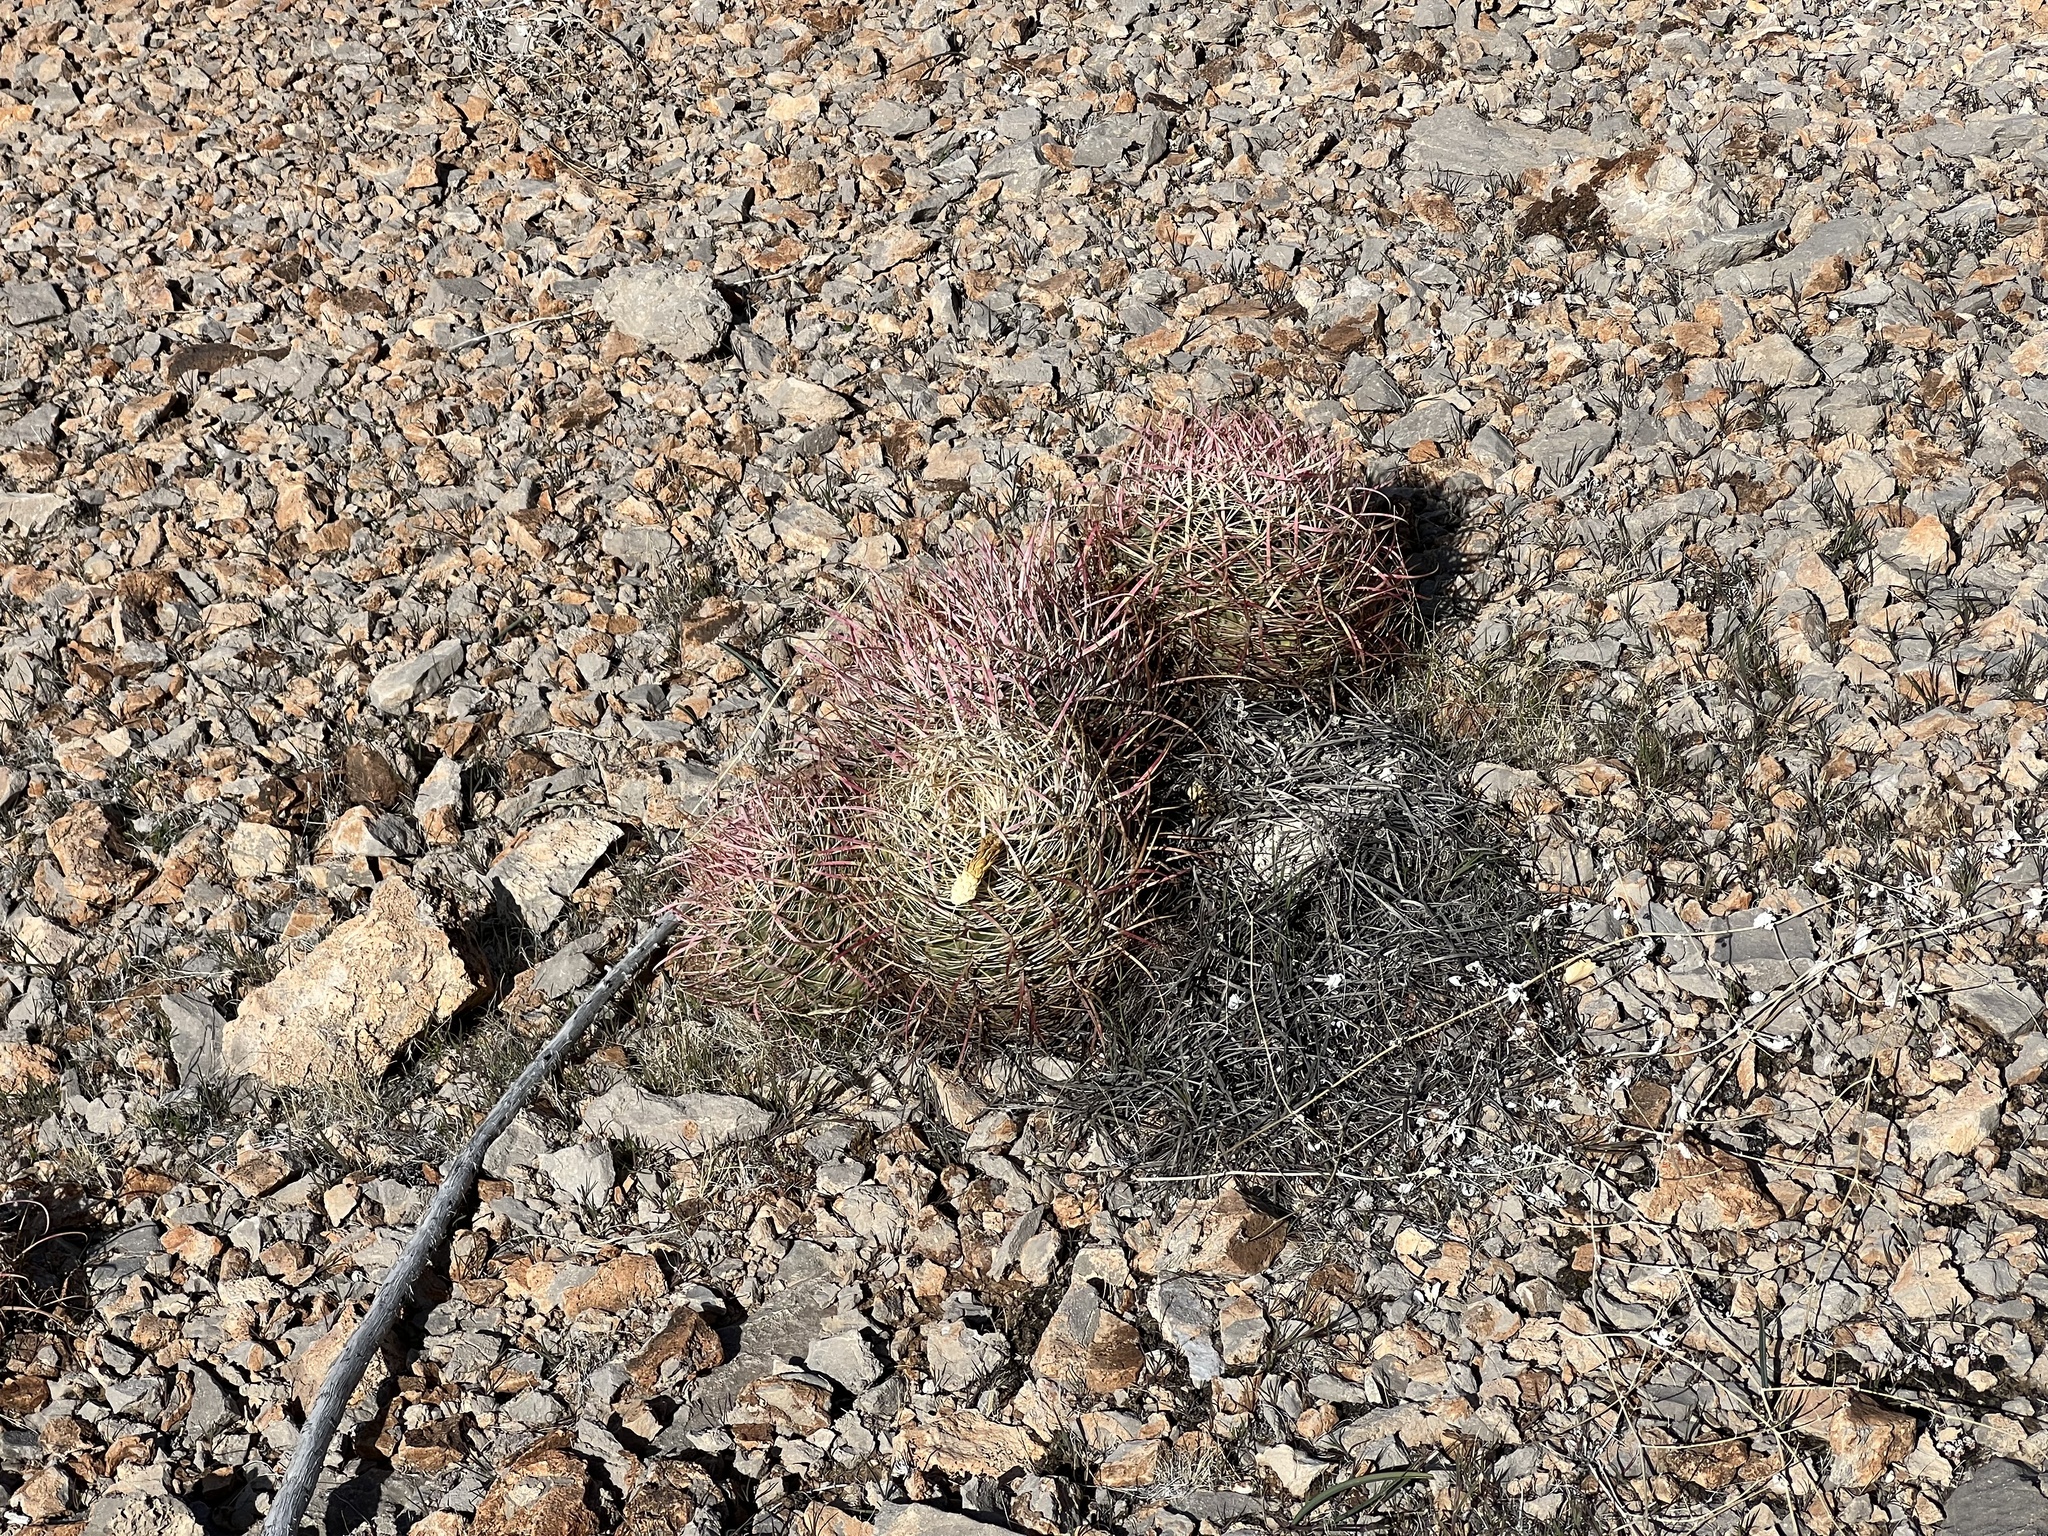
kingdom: Plantae
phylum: Tracheophyta
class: Magnoliopsida
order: Caryophyllales
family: Cactaceae
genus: Ferocactus
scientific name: Ferocactus cylindraceus
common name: California barrel cactus
